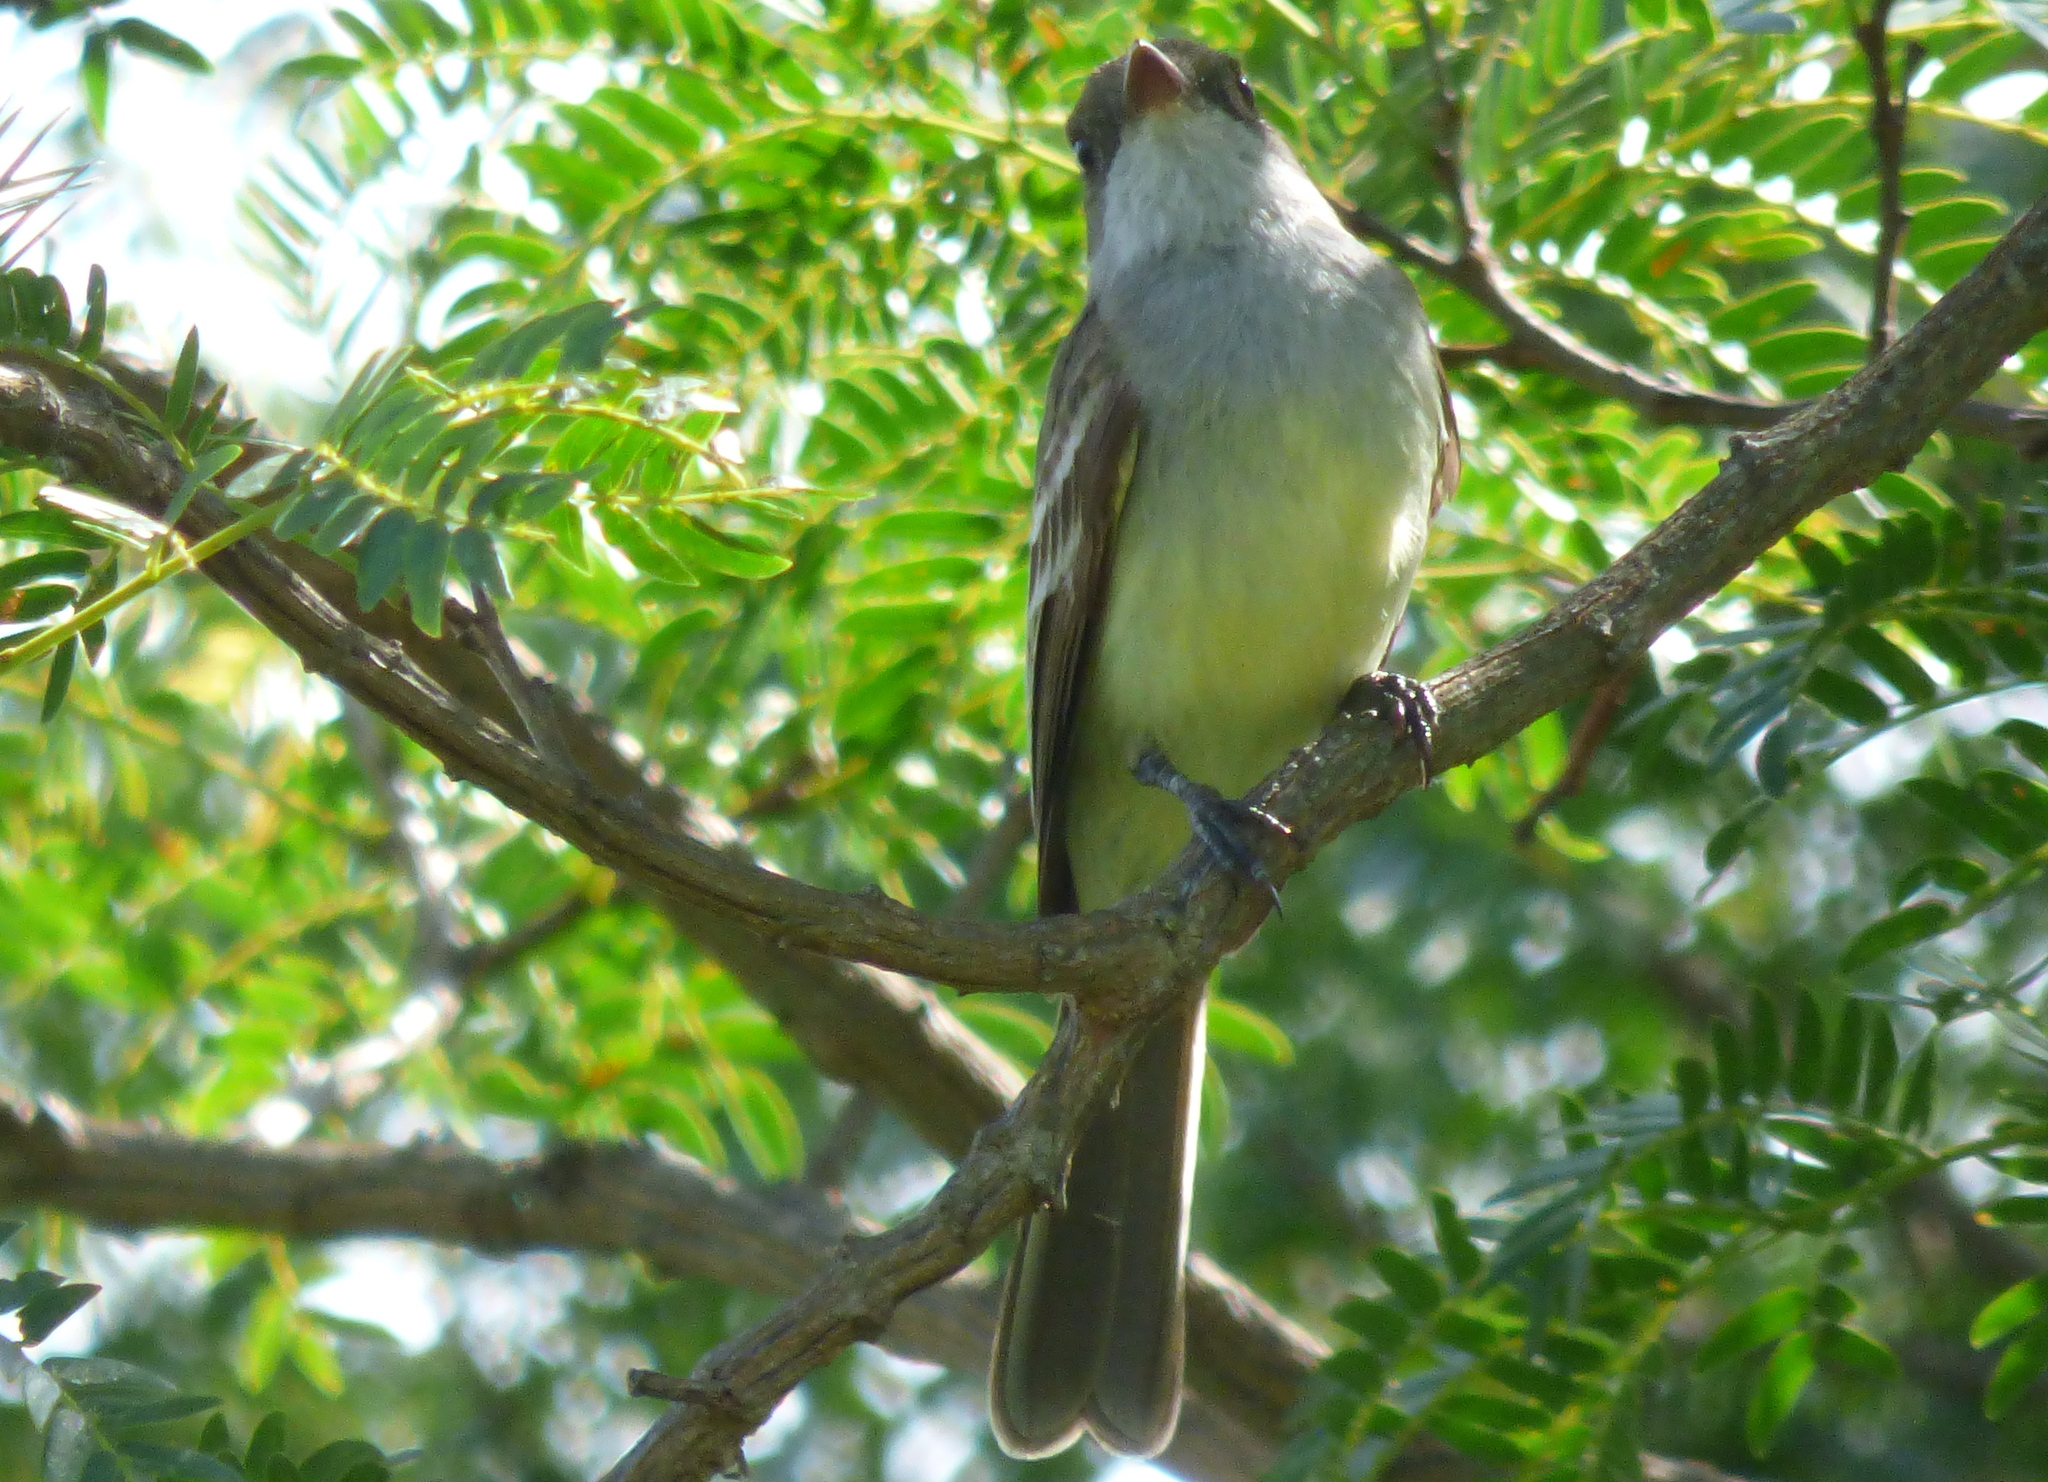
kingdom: Animalia
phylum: Chordata
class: Aves
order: Passeriformes
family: Tyrannidae
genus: Myiarchus
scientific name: Myiarchus swainsoni
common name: Swainson's flycatcher
